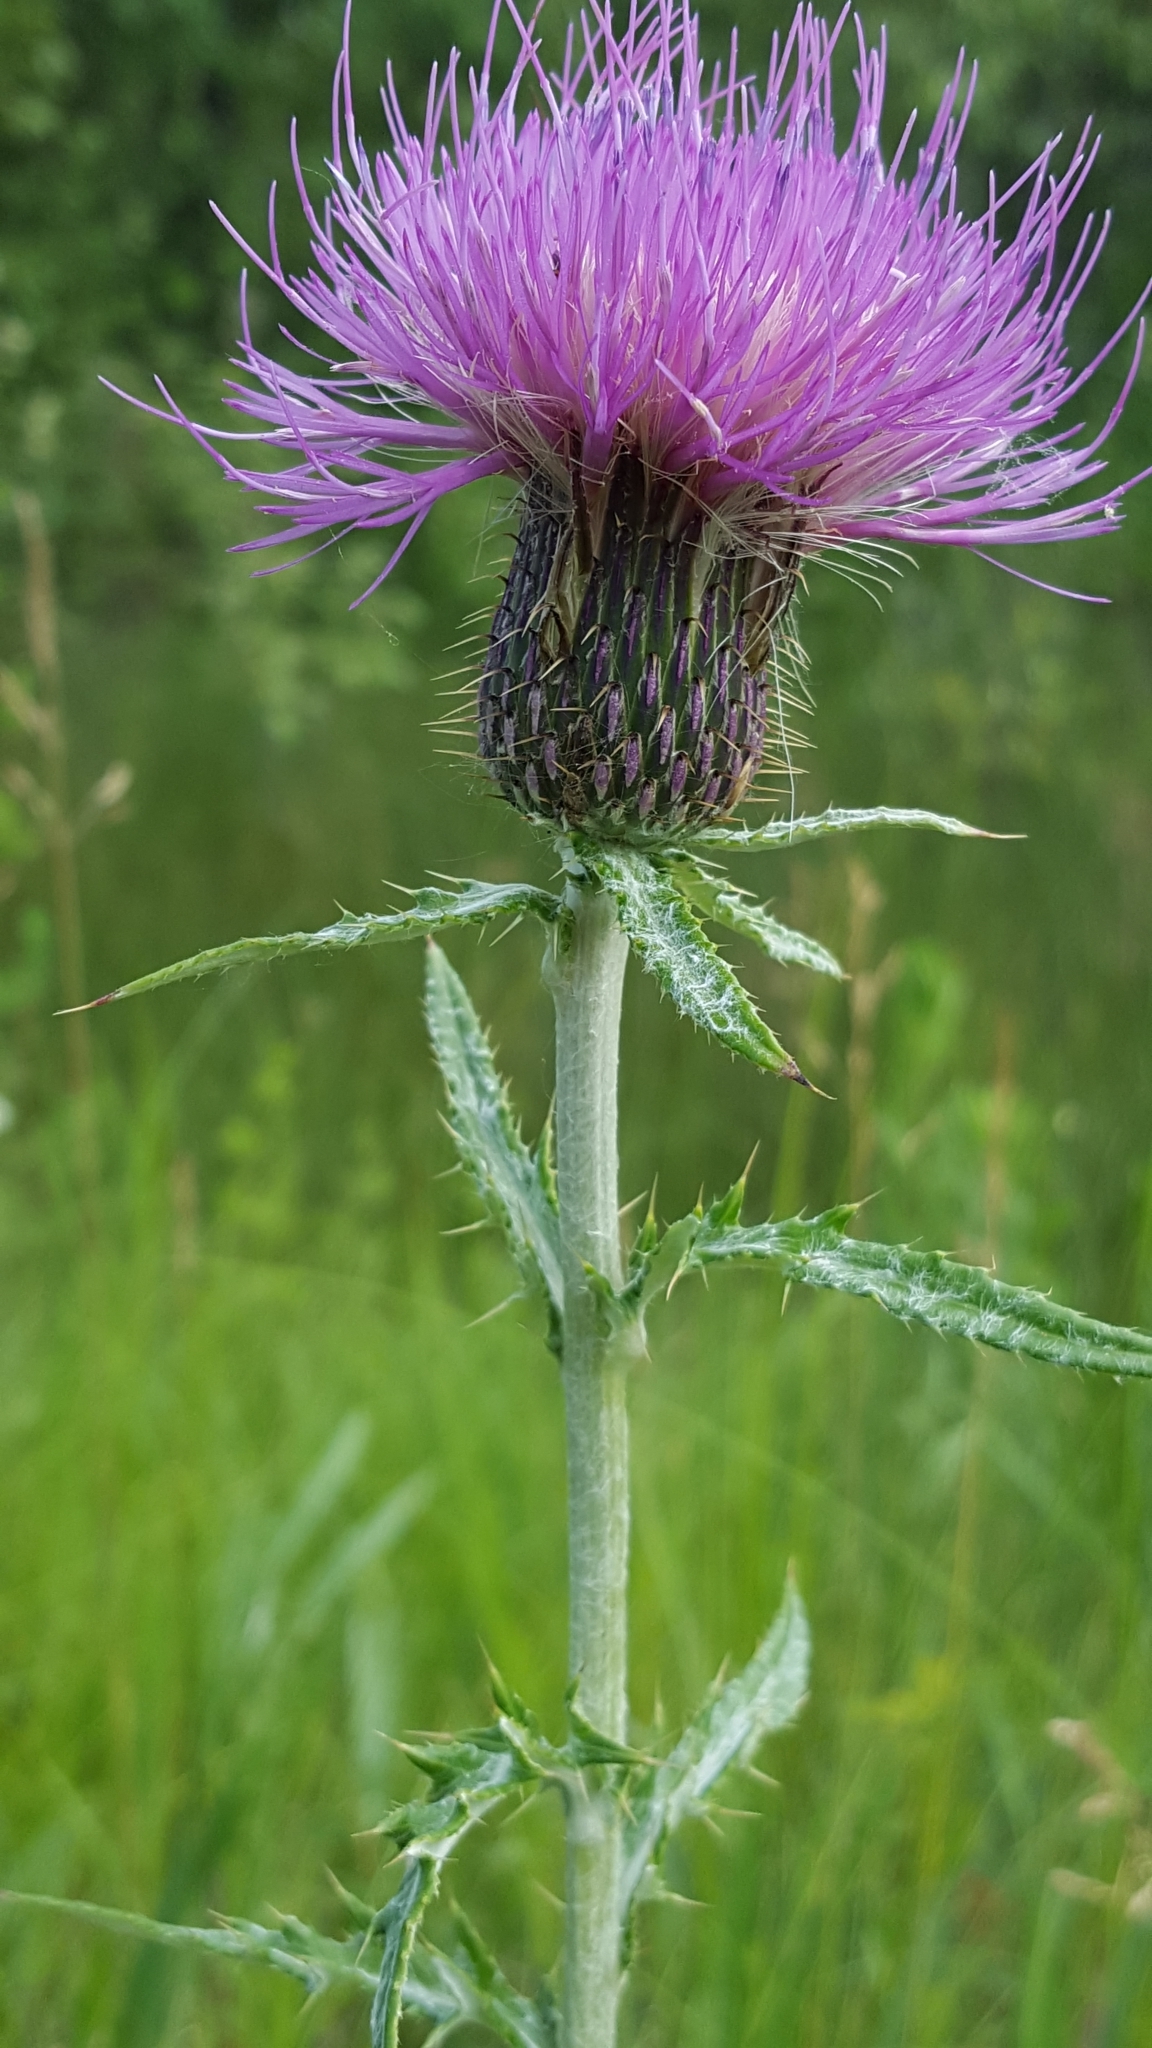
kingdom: Plantae
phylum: Tracheophyta
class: Magnoliopsida
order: Asterales
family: Asteraceae
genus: Cirsium
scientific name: Cirsium flodmanii
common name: Flodman's thistle
